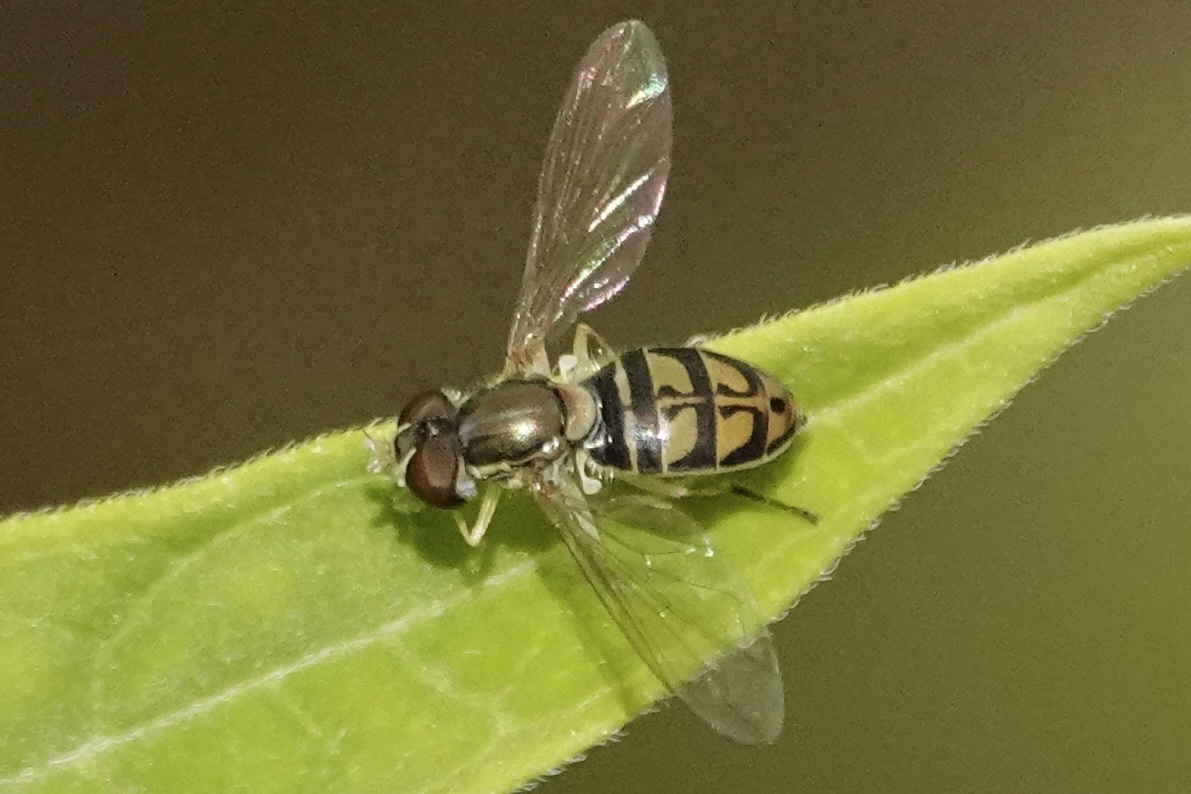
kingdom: Animalia
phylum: Arthropoda
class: Insecta
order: Diptera
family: Syrphidae
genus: Toxomerus
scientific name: Toxomerus marginatus
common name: Syrphid fly
